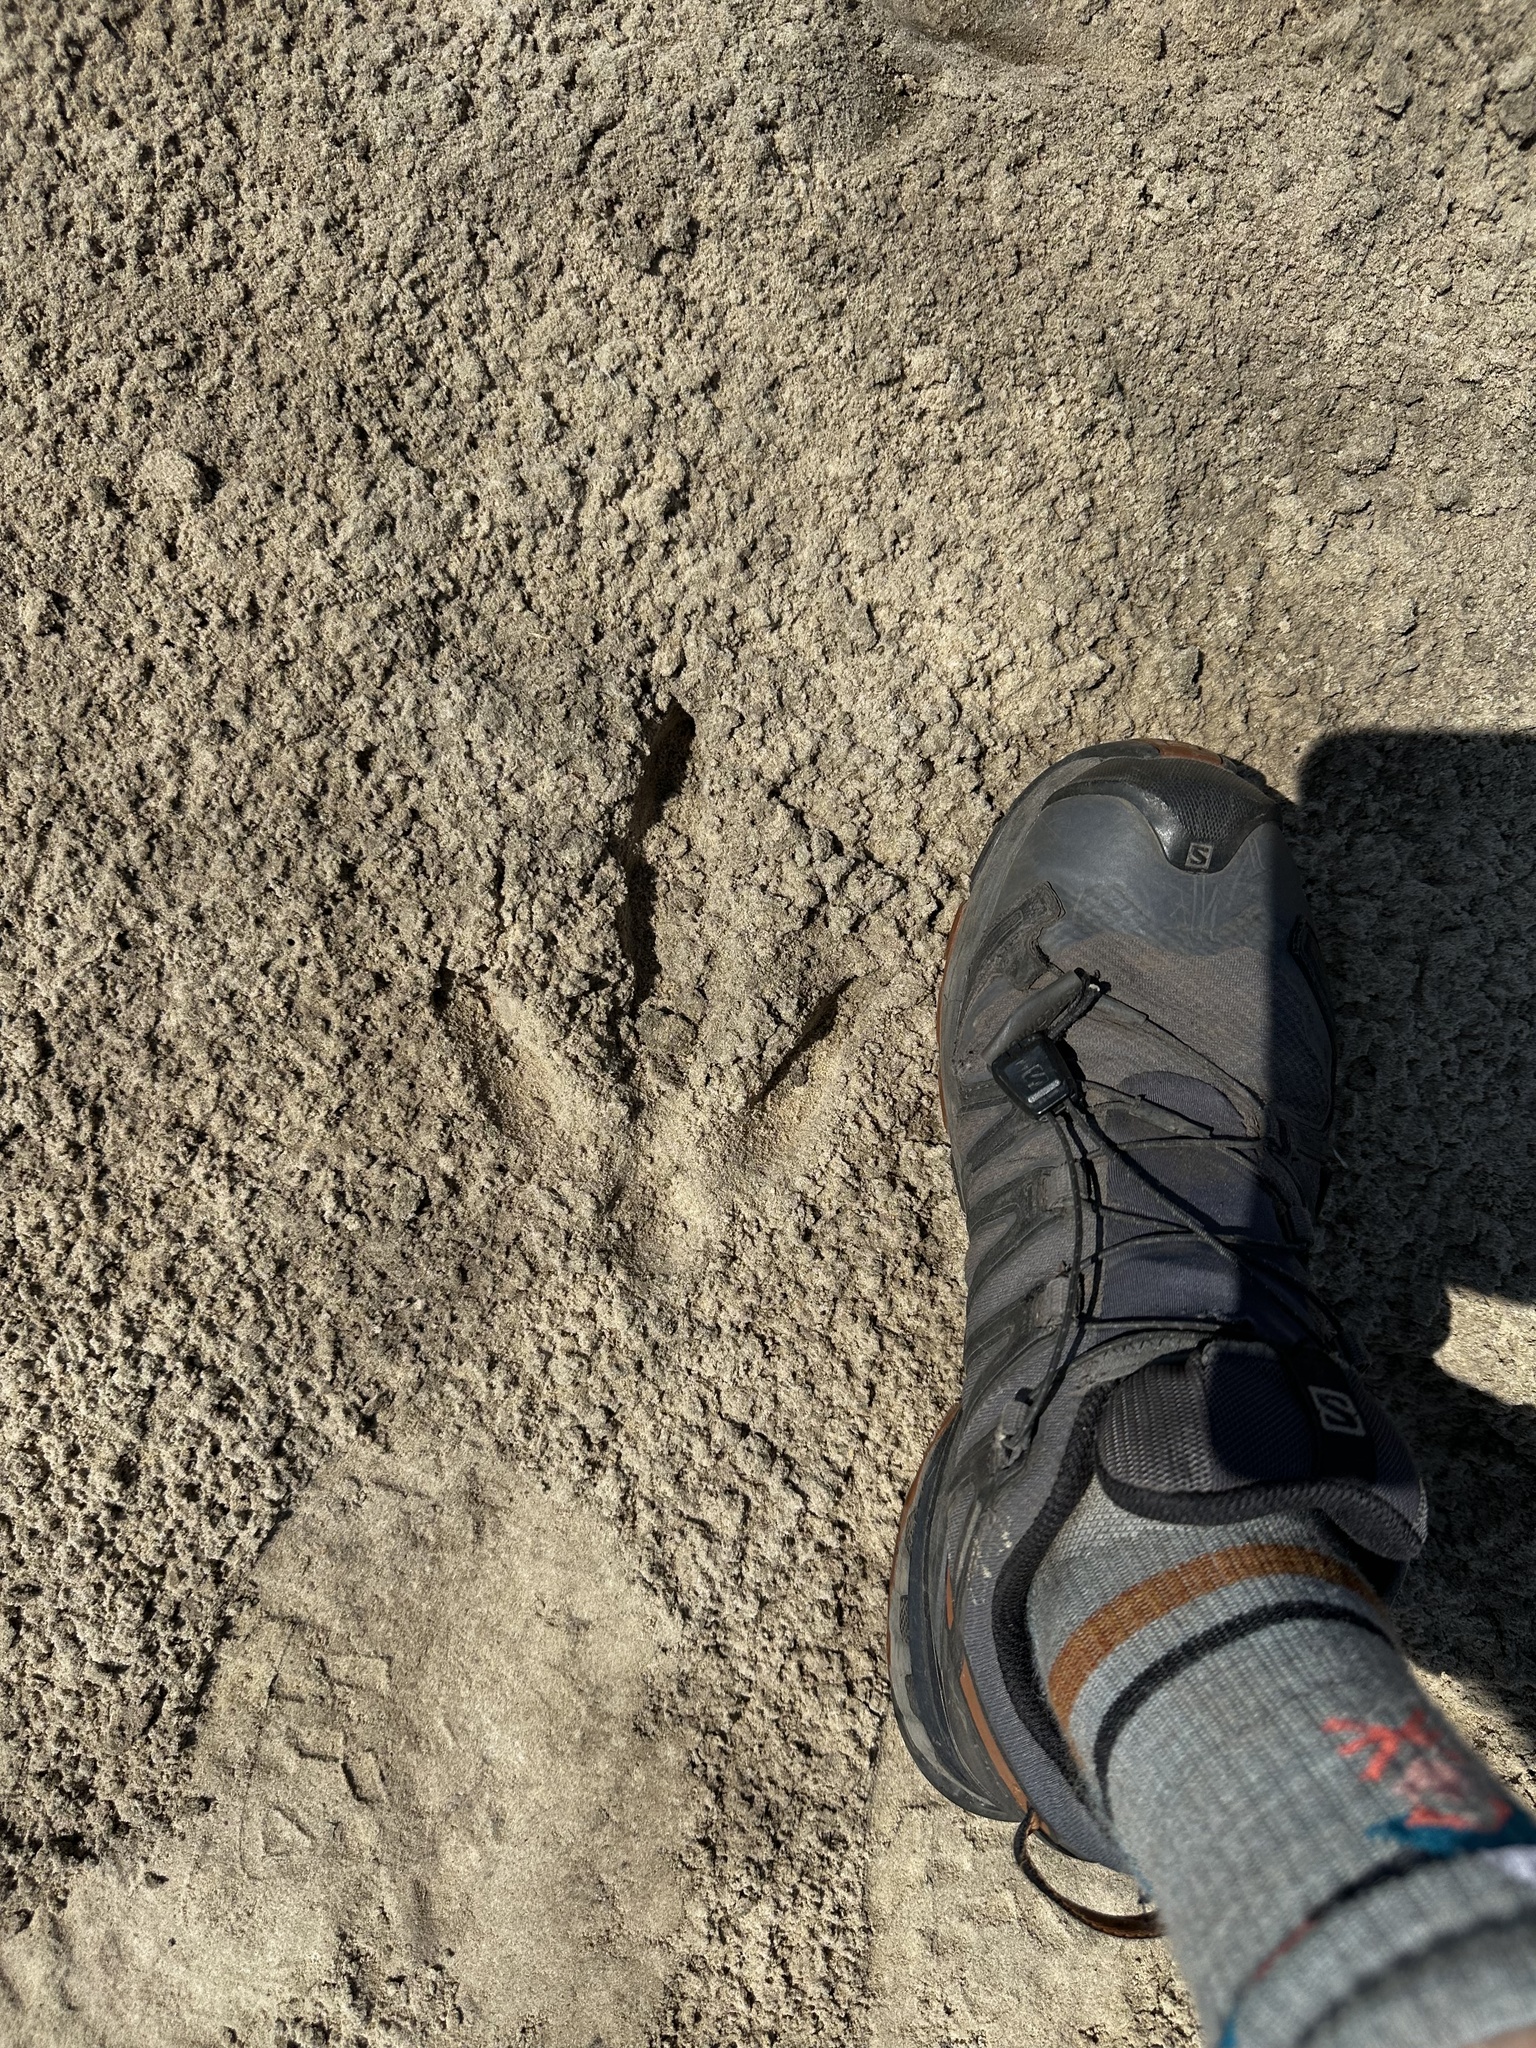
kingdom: Animalia
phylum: Chordata
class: Aves
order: Rheiformes
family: Rheidae
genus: Rhea
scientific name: Rhea americana
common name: Greater rhea
